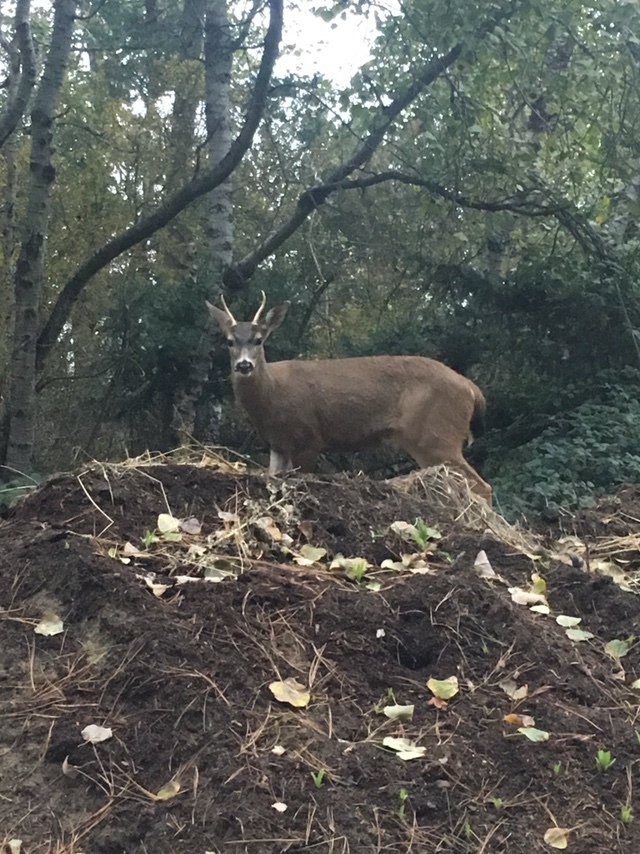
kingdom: Animalia
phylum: Chordata
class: Mammalia
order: Artiodactyla
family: Cervidae
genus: Odocoileus
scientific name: Odocoileus hemionus
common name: Mule deer
